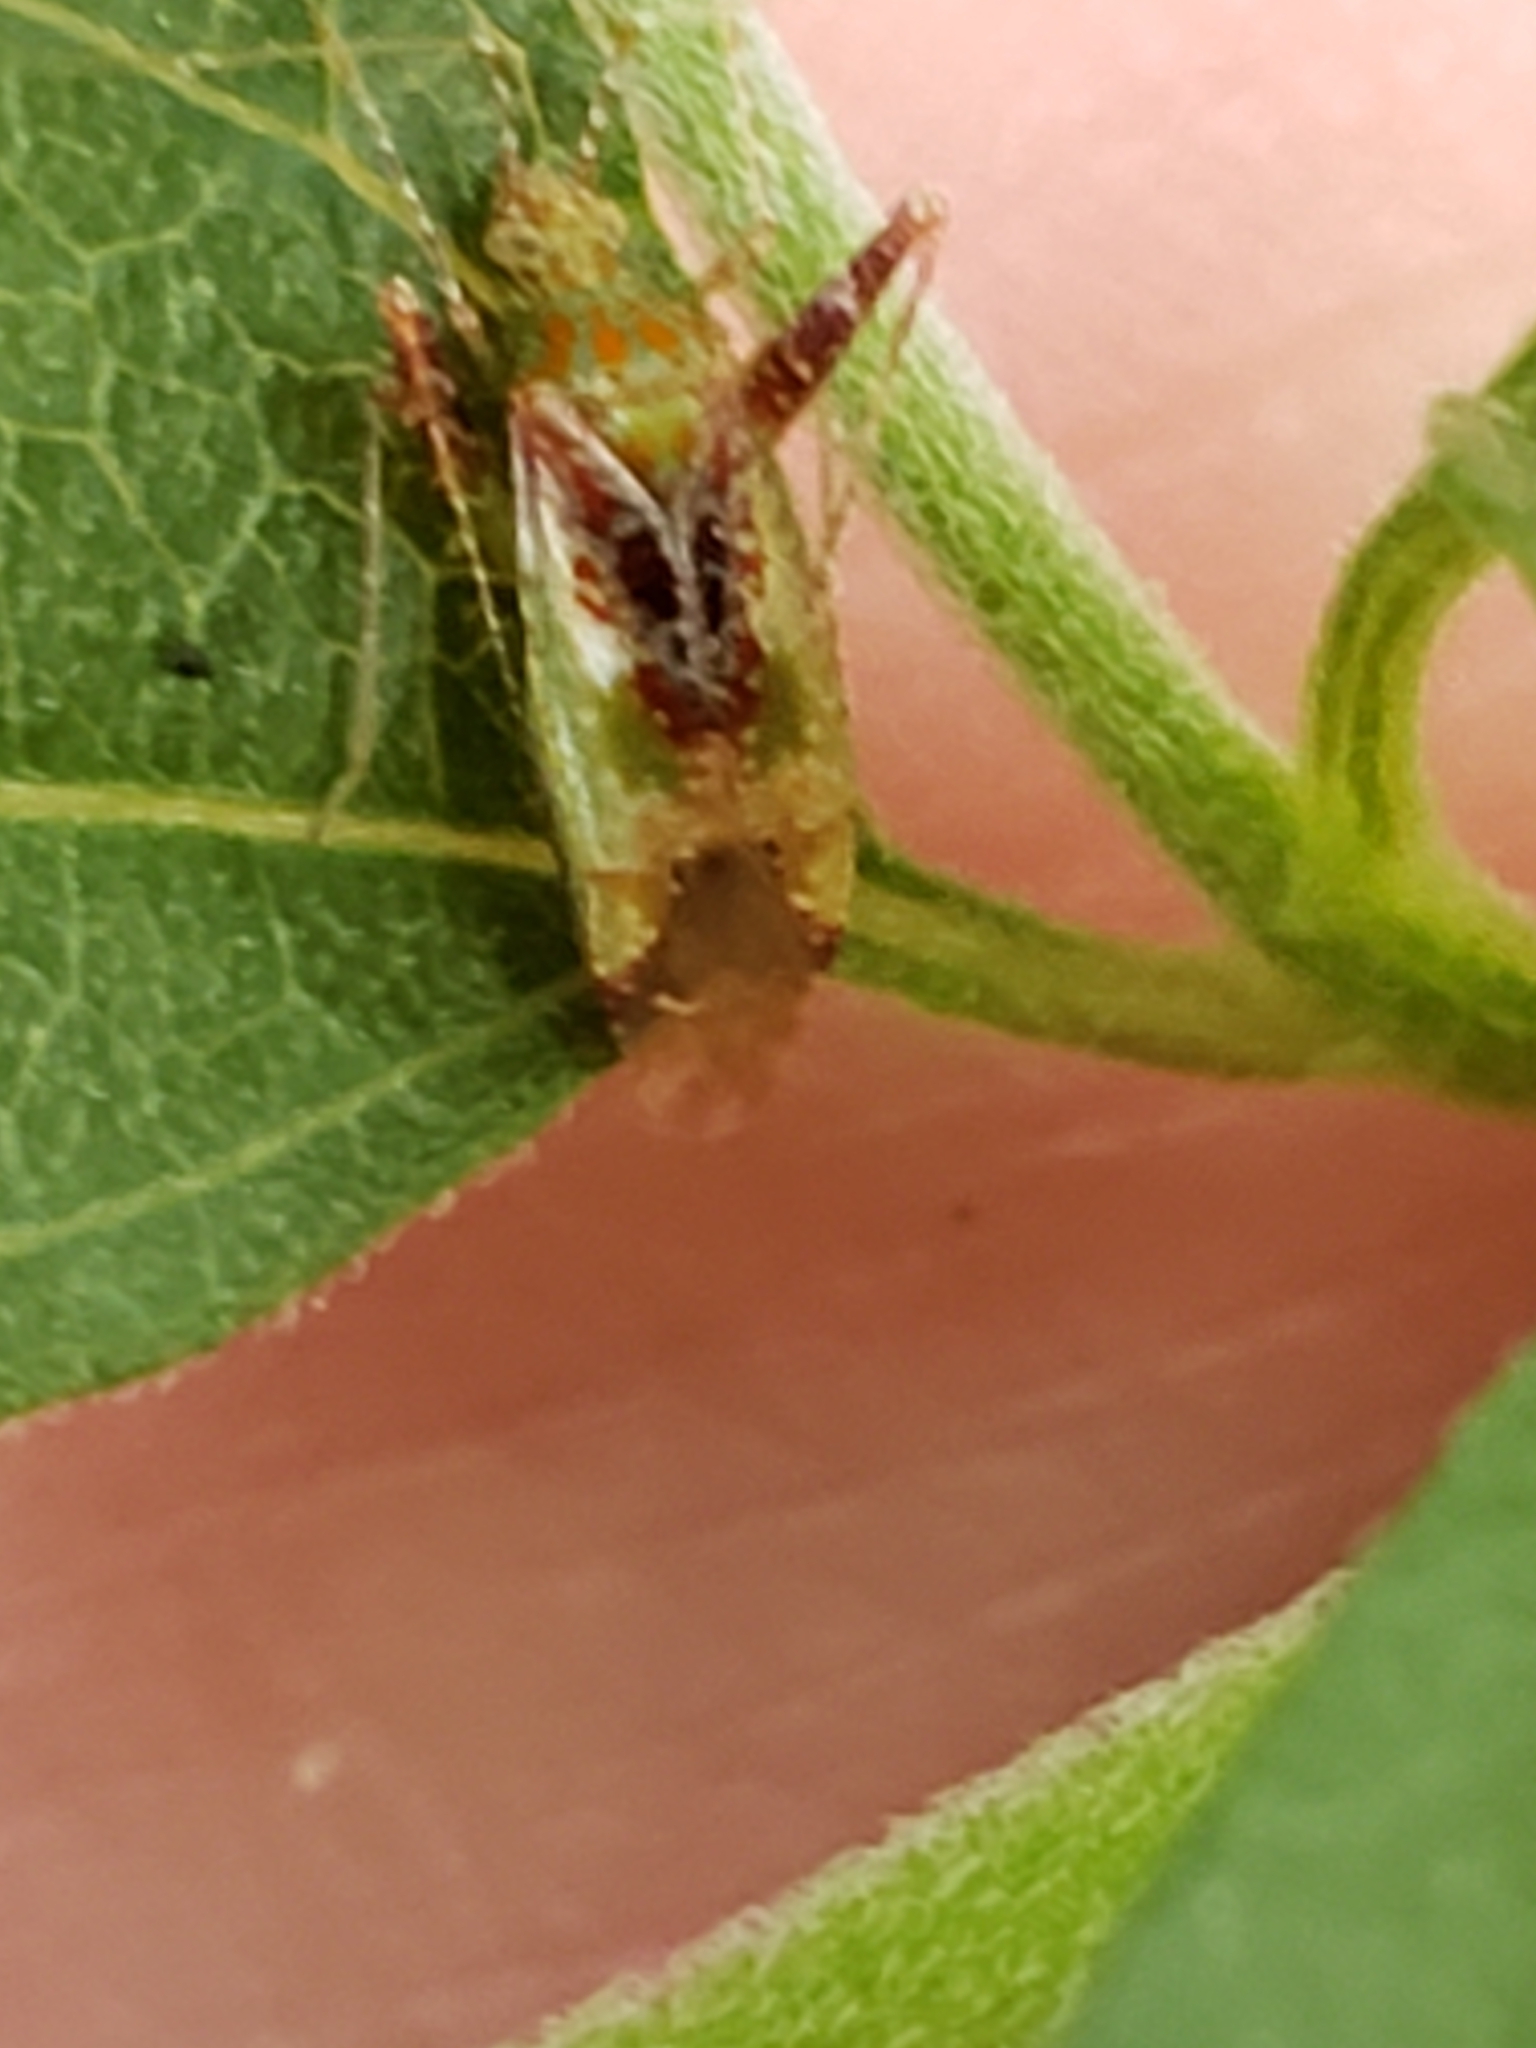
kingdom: Animalia
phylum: Arthropoda
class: Insecta
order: Hemiptera
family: Miridae
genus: Phytocoris
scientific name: Phytocoris tibialis
